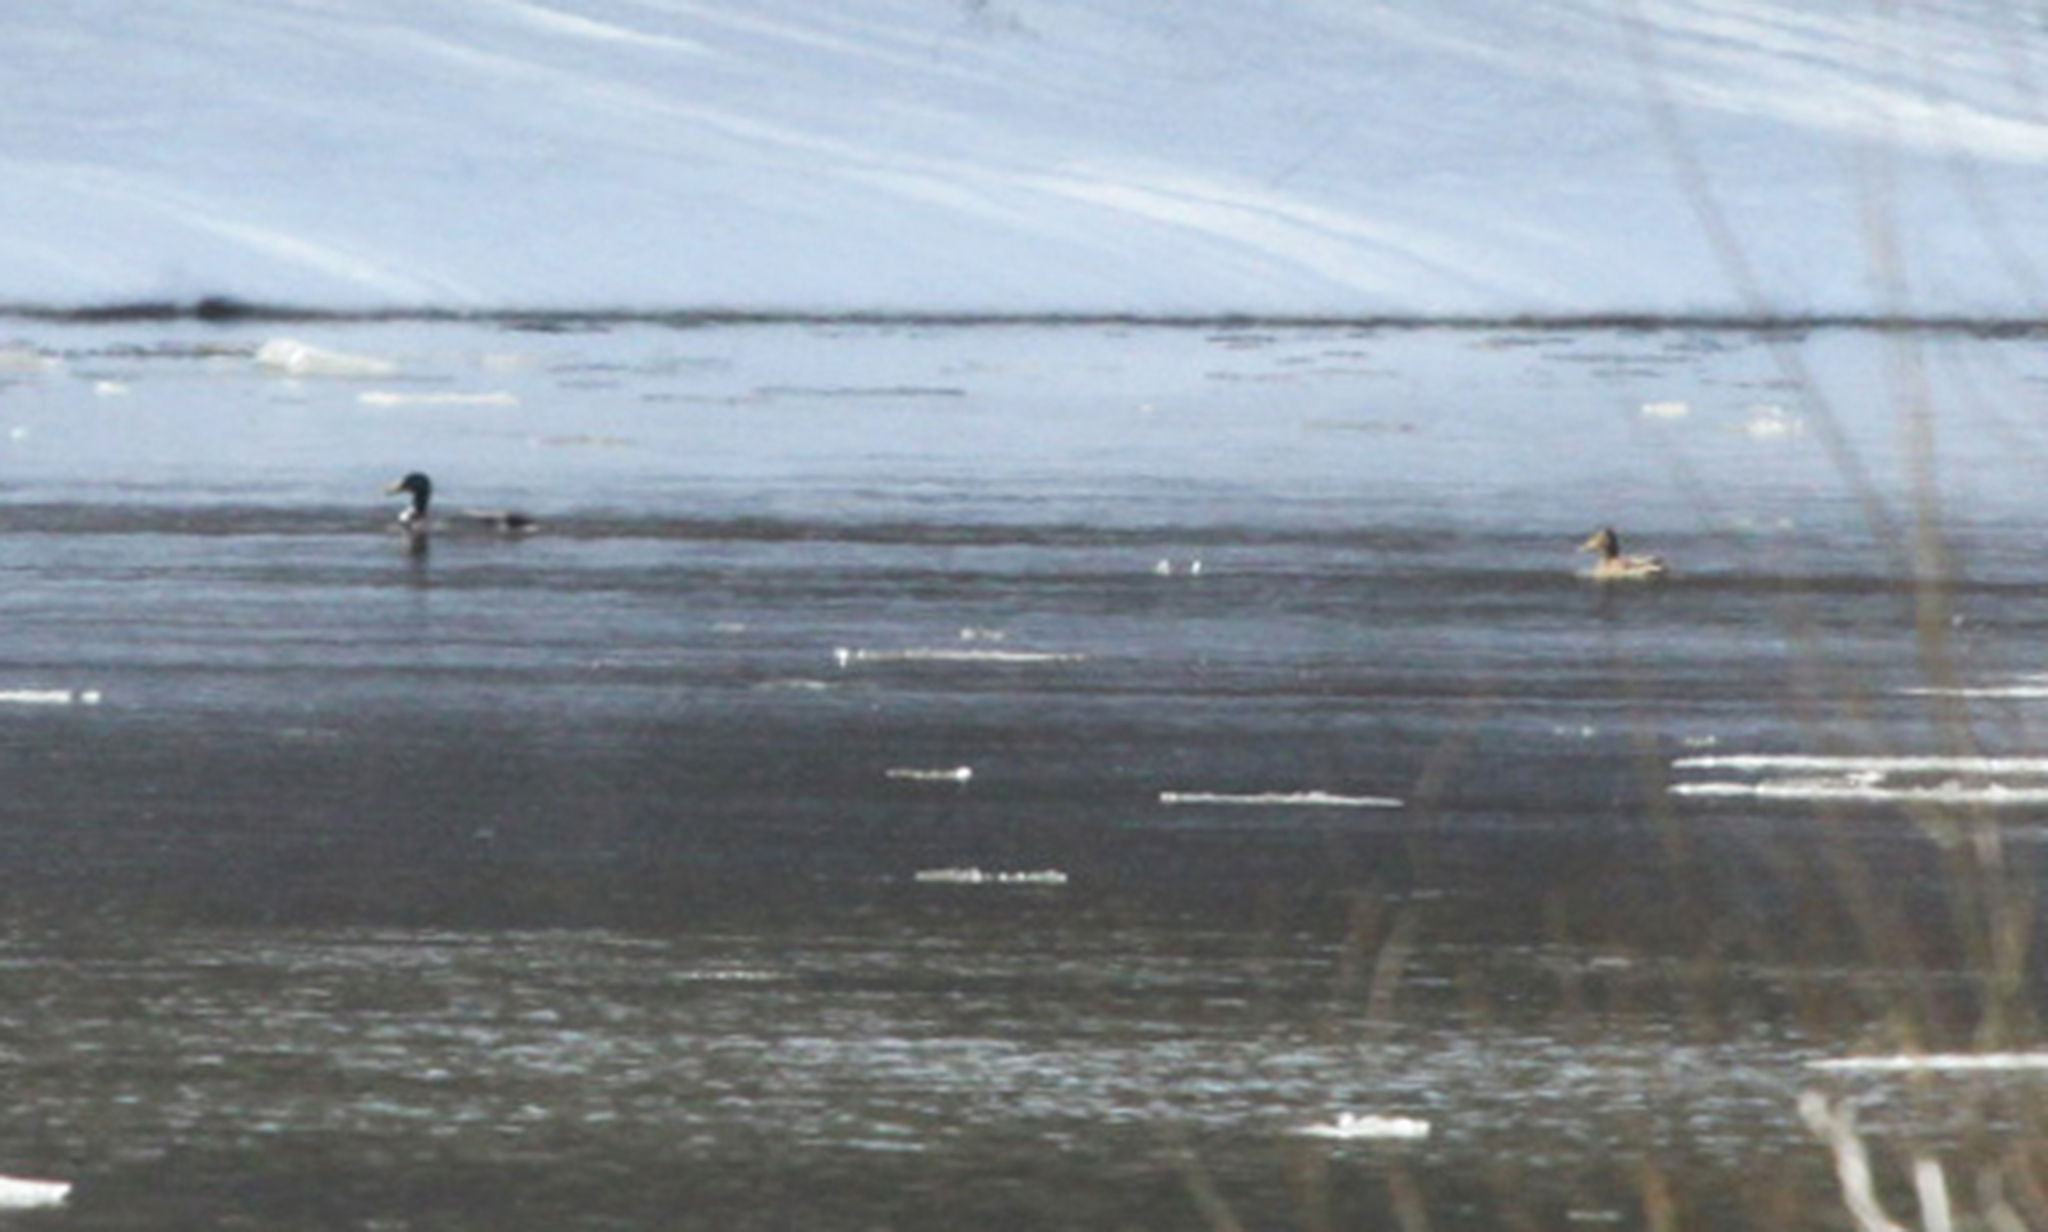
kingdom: Animalia
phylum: Chordata
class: Aves
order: Anseriformes
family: Anatidae
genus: Anas
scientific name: Anas platyrhynchos
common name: Mallard
